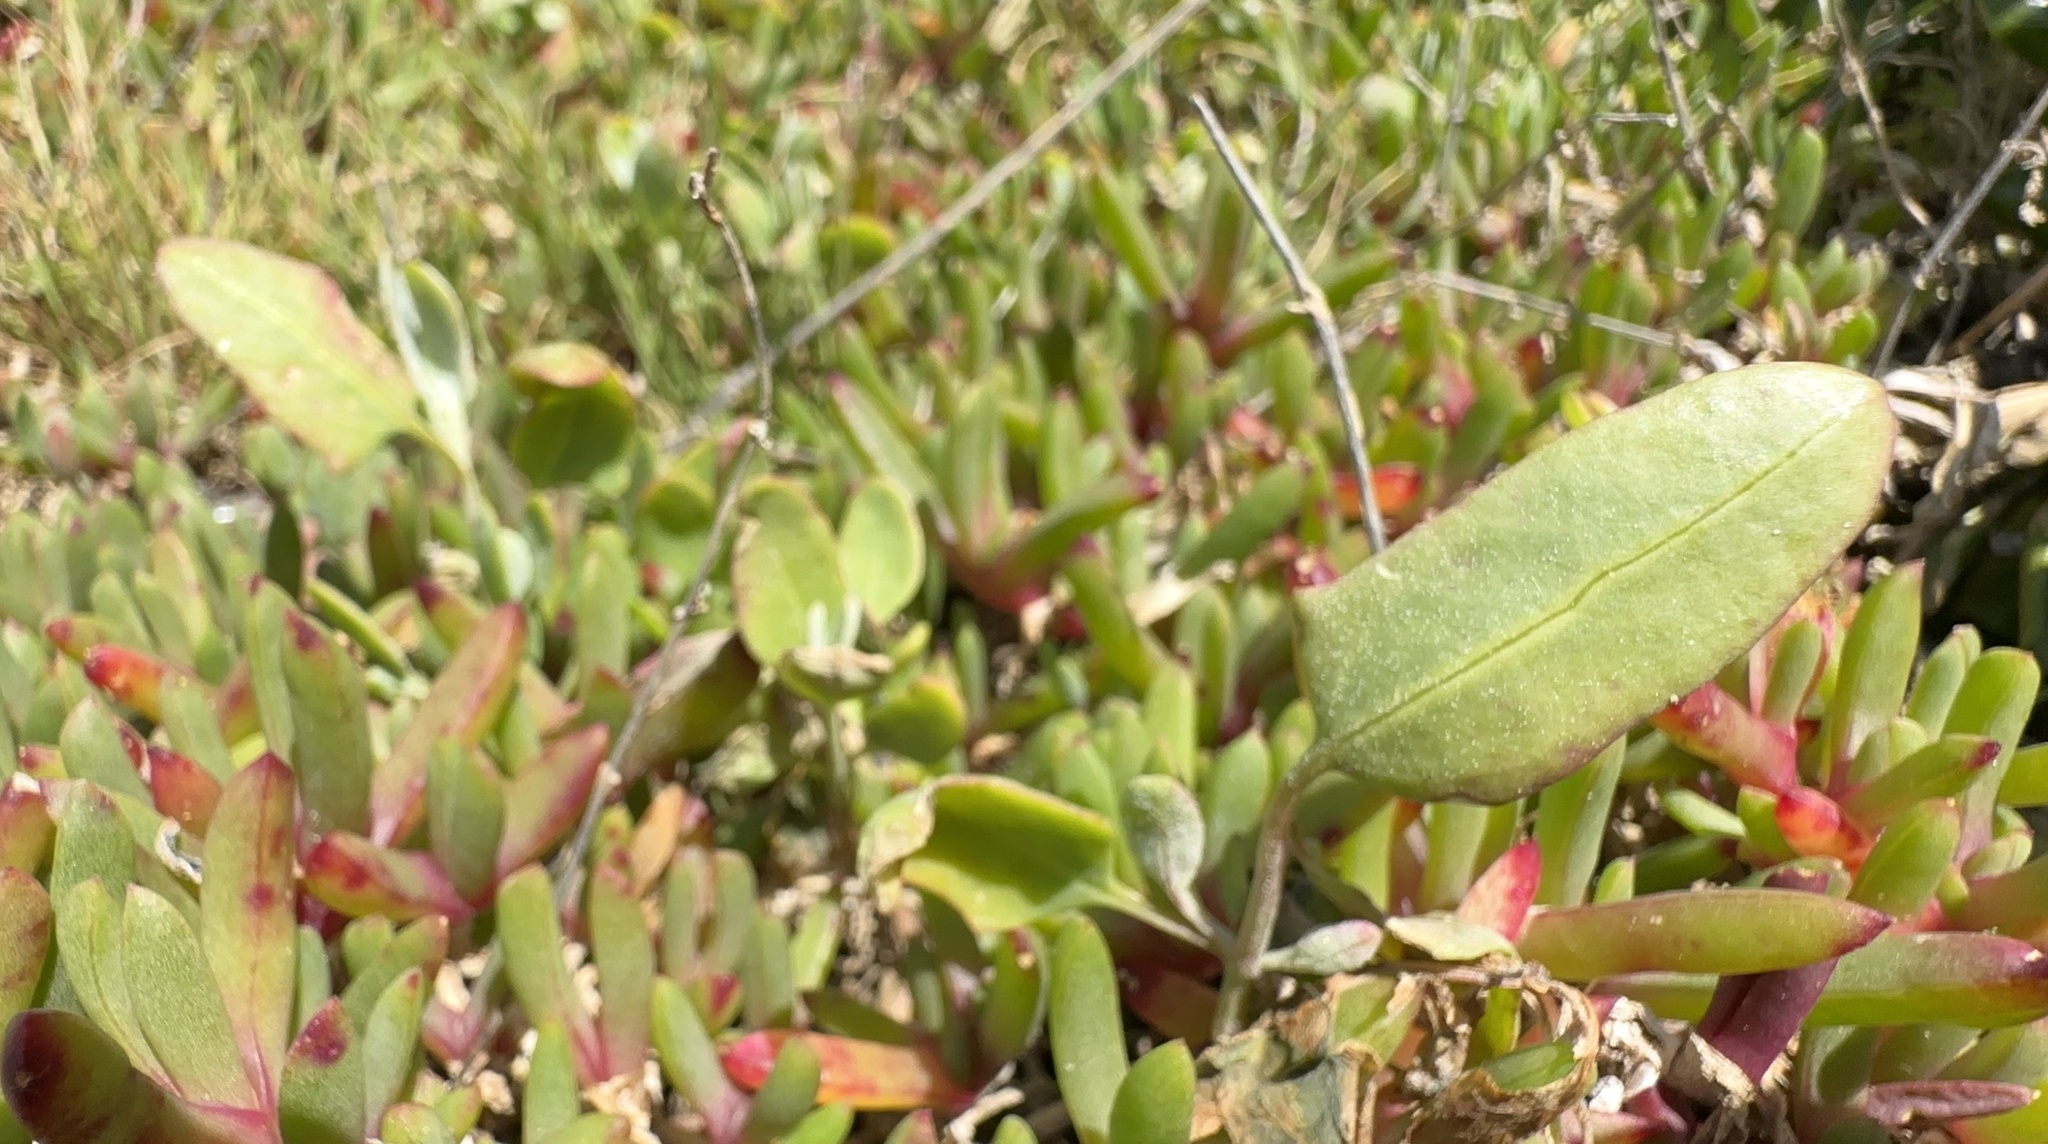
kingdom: Plantae
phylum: Tracheophyta
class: Magnoliopsida
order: Caryophyllales
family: Amaranthaceae
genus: Atriplex
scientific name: Atriplex prostrata
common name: Spear-leaved orache
